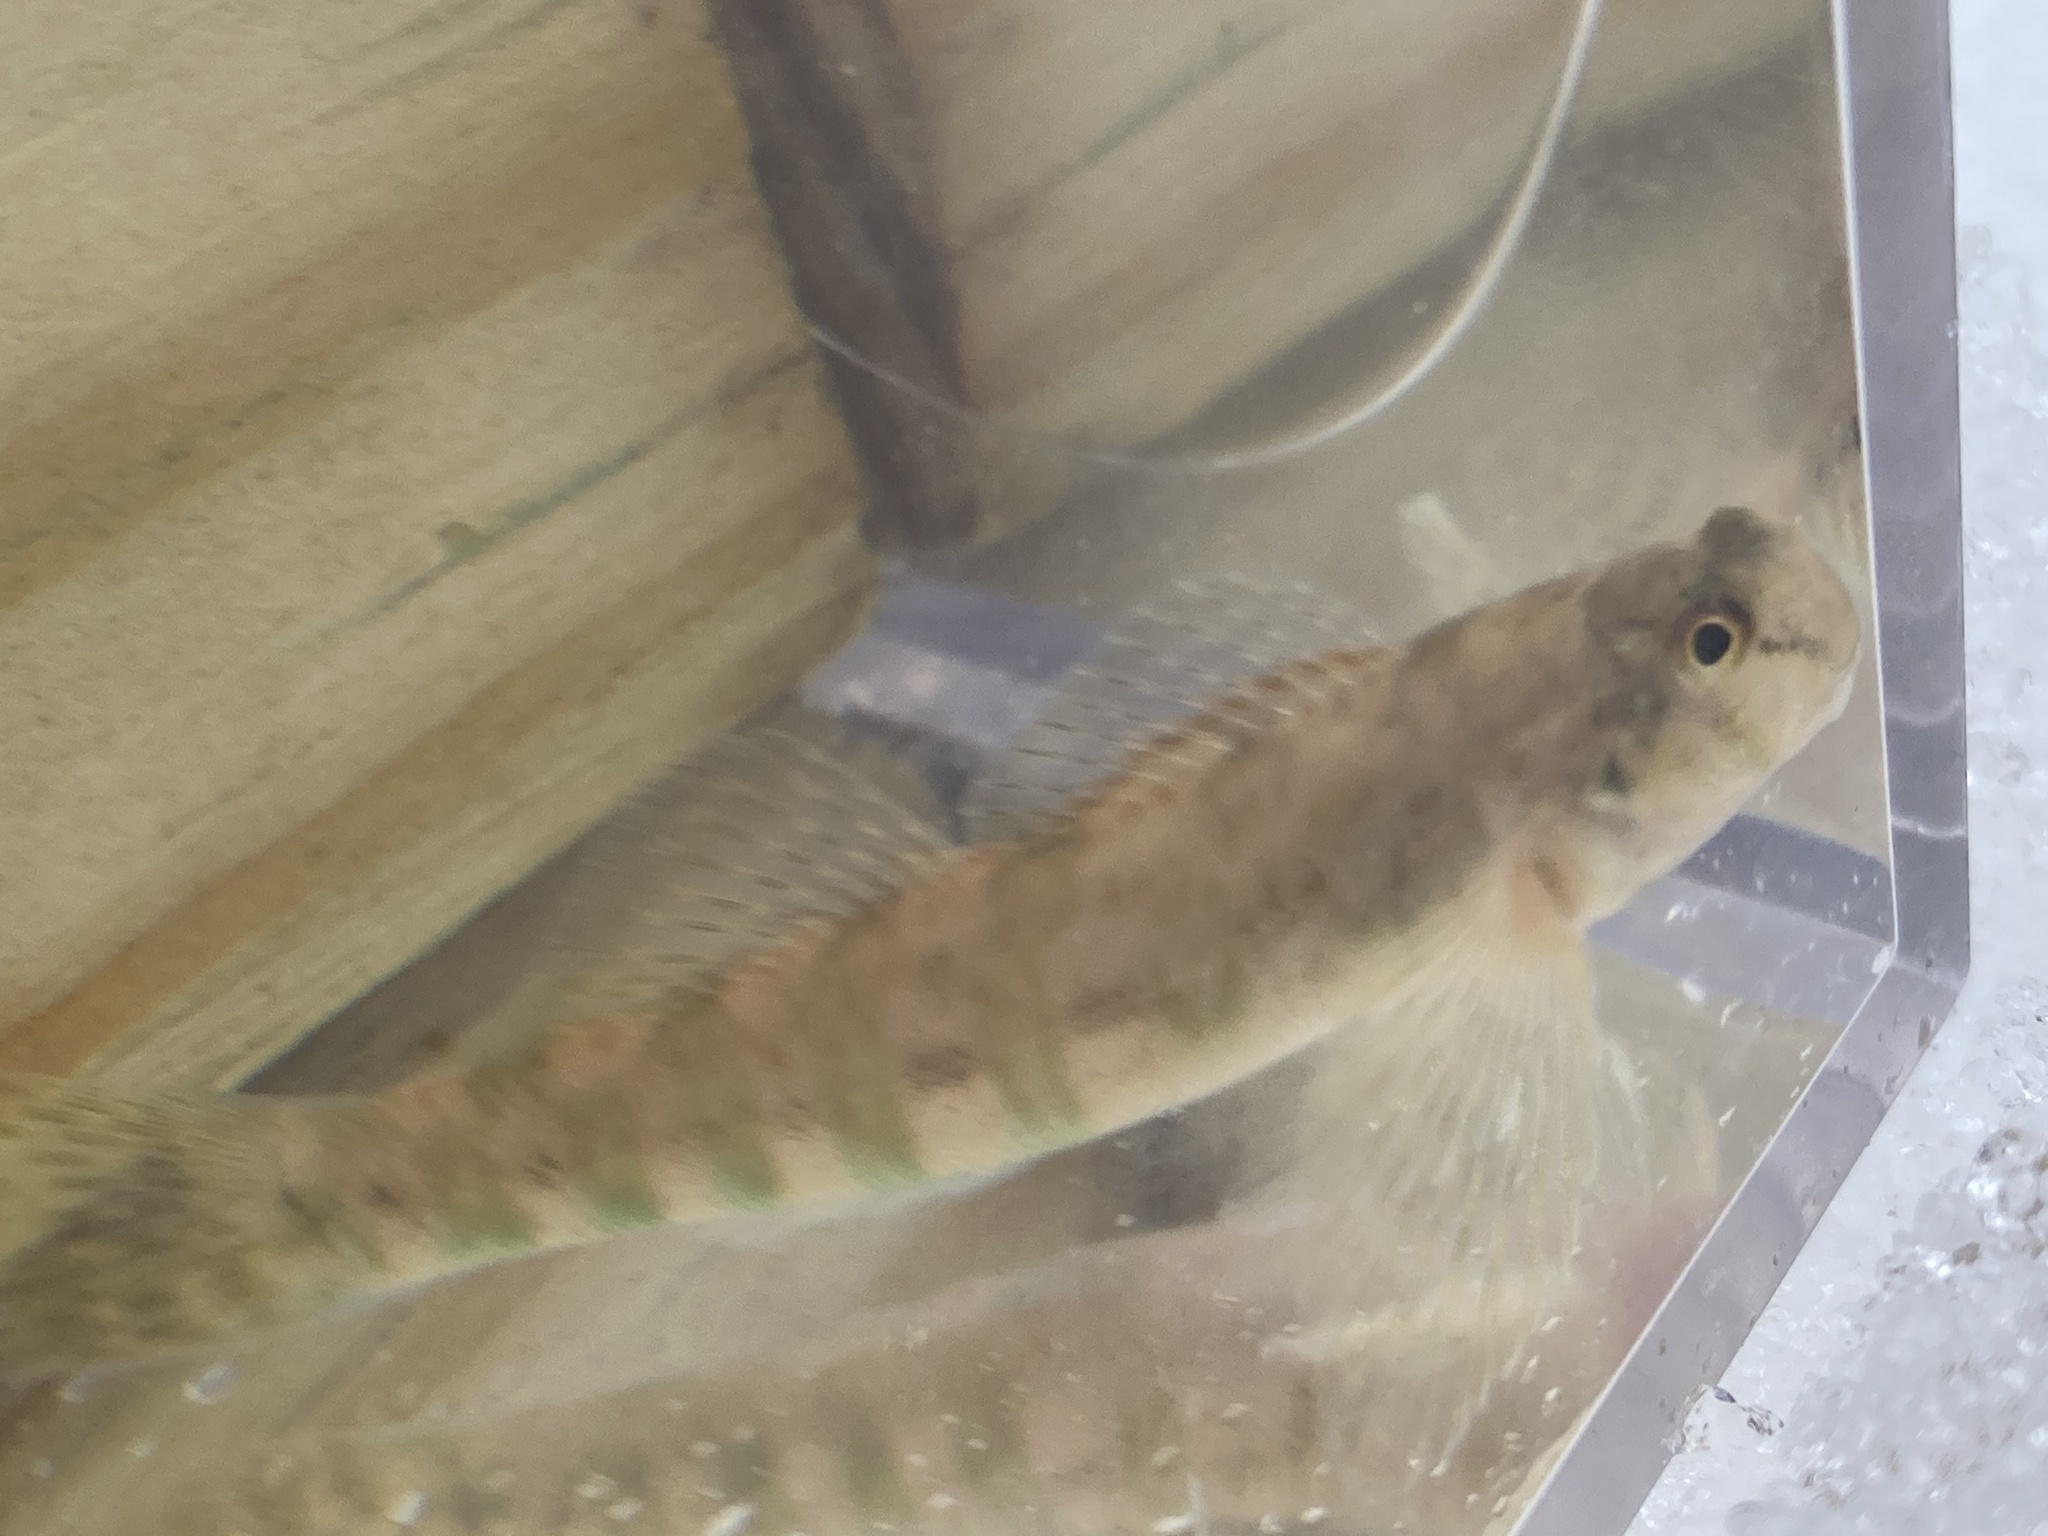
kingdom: Animalia
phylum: Chordata
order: Perciformes
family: Percidae
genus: Etheostoma
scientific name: Etheostoma blennioides
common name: Greenside darter
